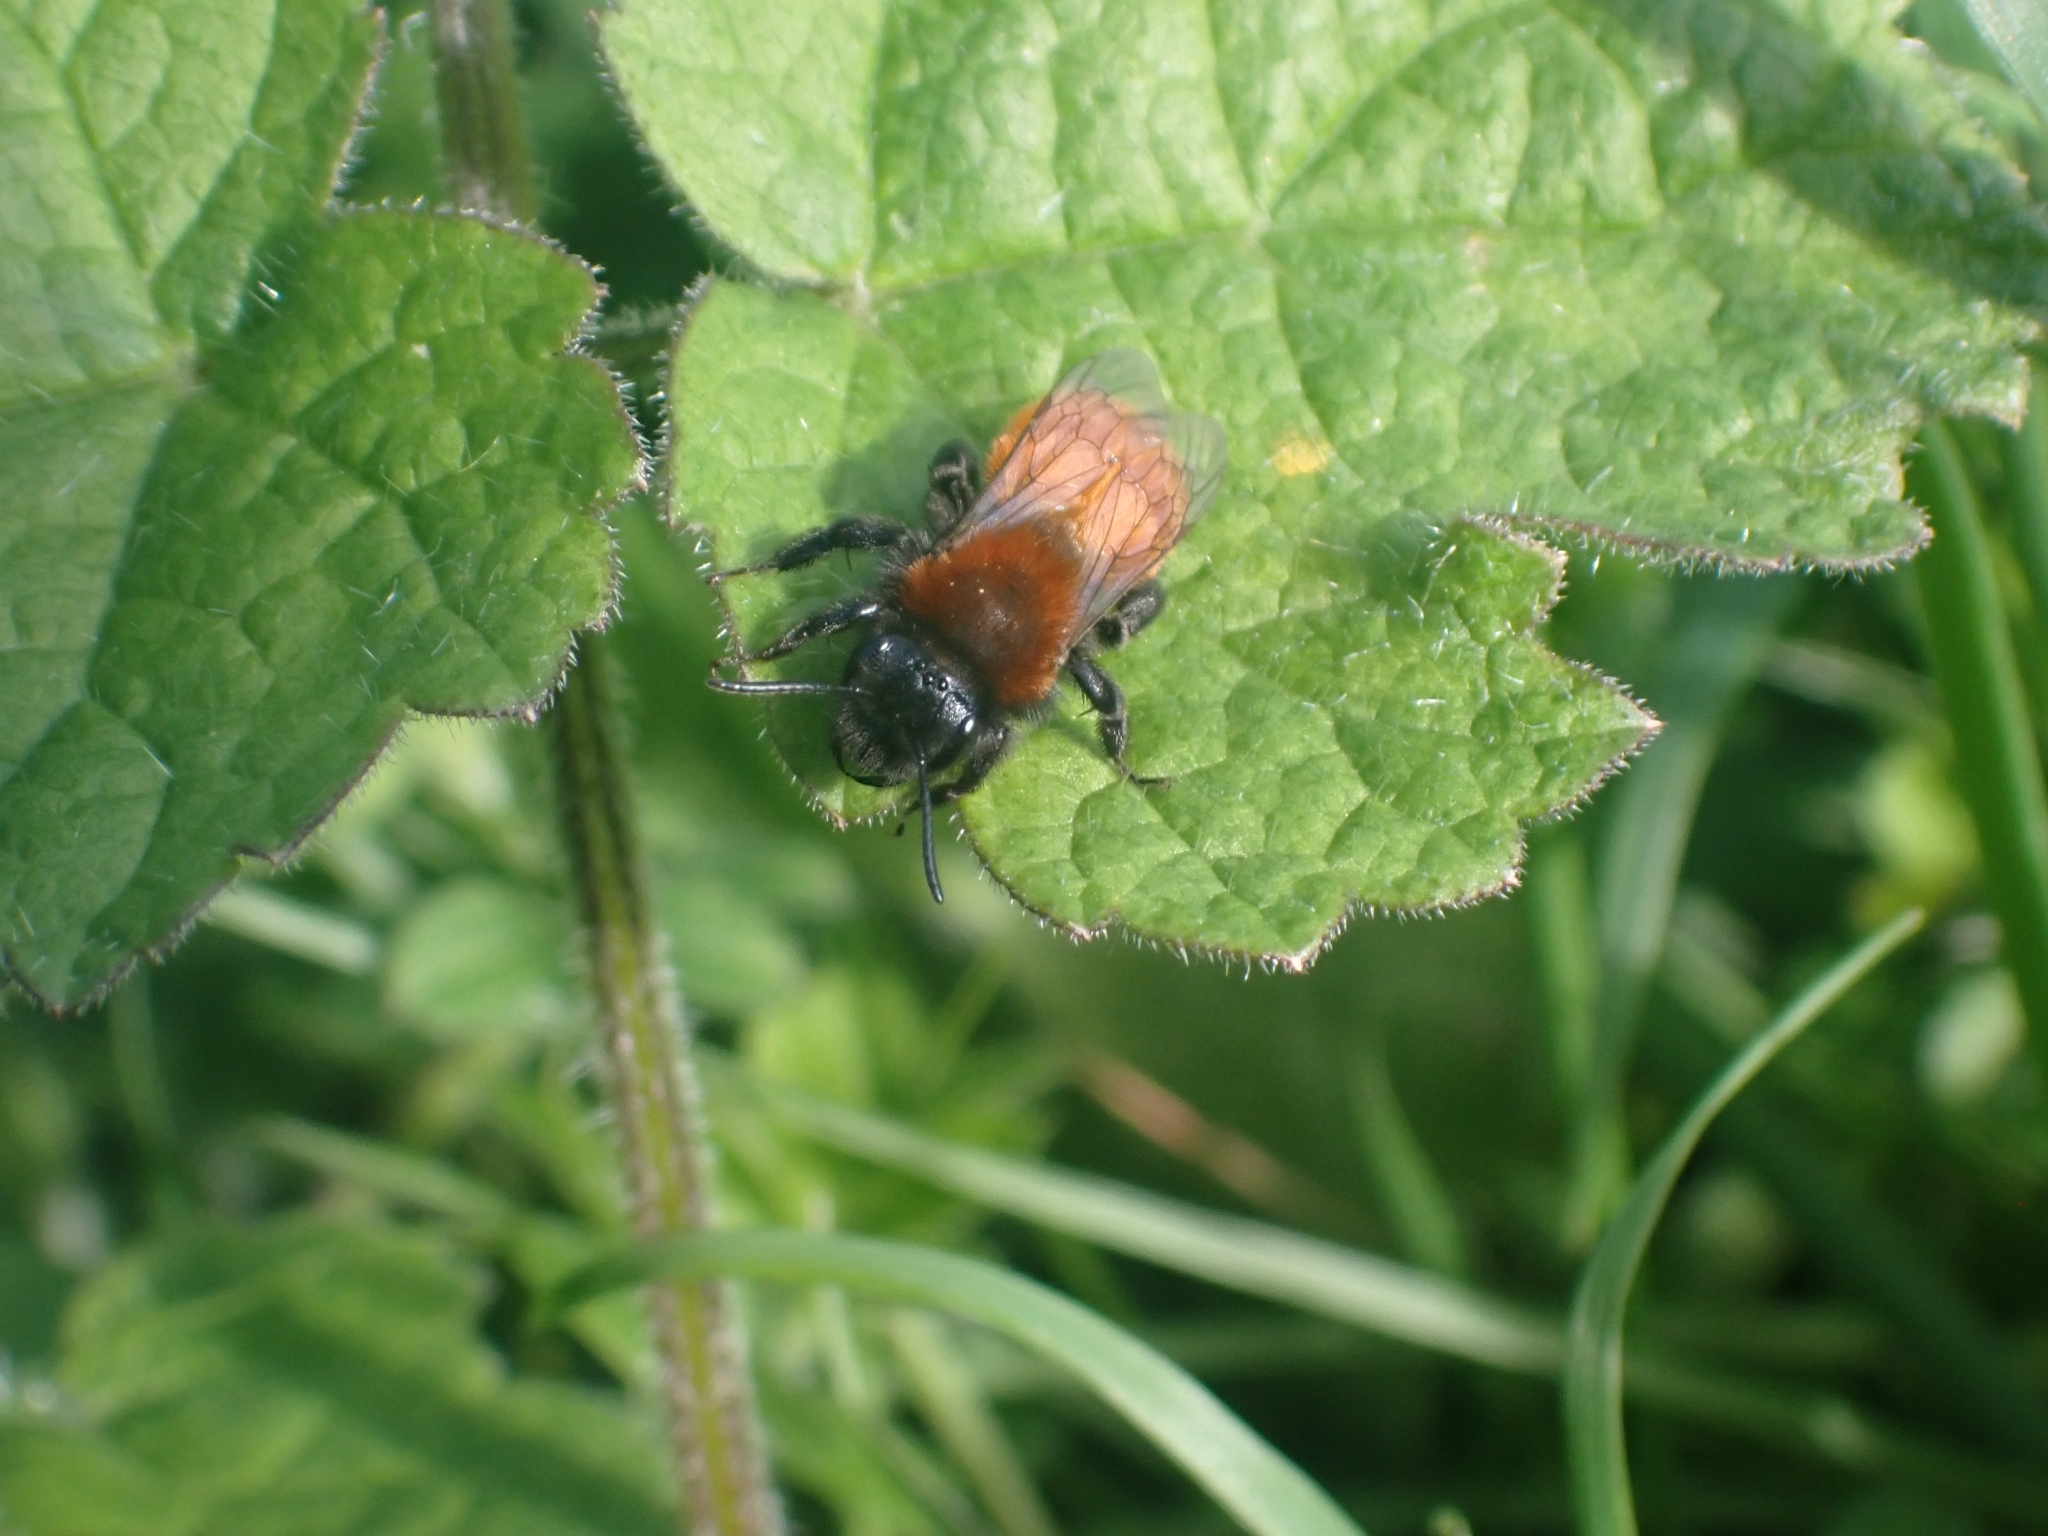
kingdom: Animalia
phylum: Arthropoda
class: Insecta
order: Hymenoptera
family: Andrenidae
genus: Andrena
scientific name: Andrena fulva
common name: Tawny mining bee
